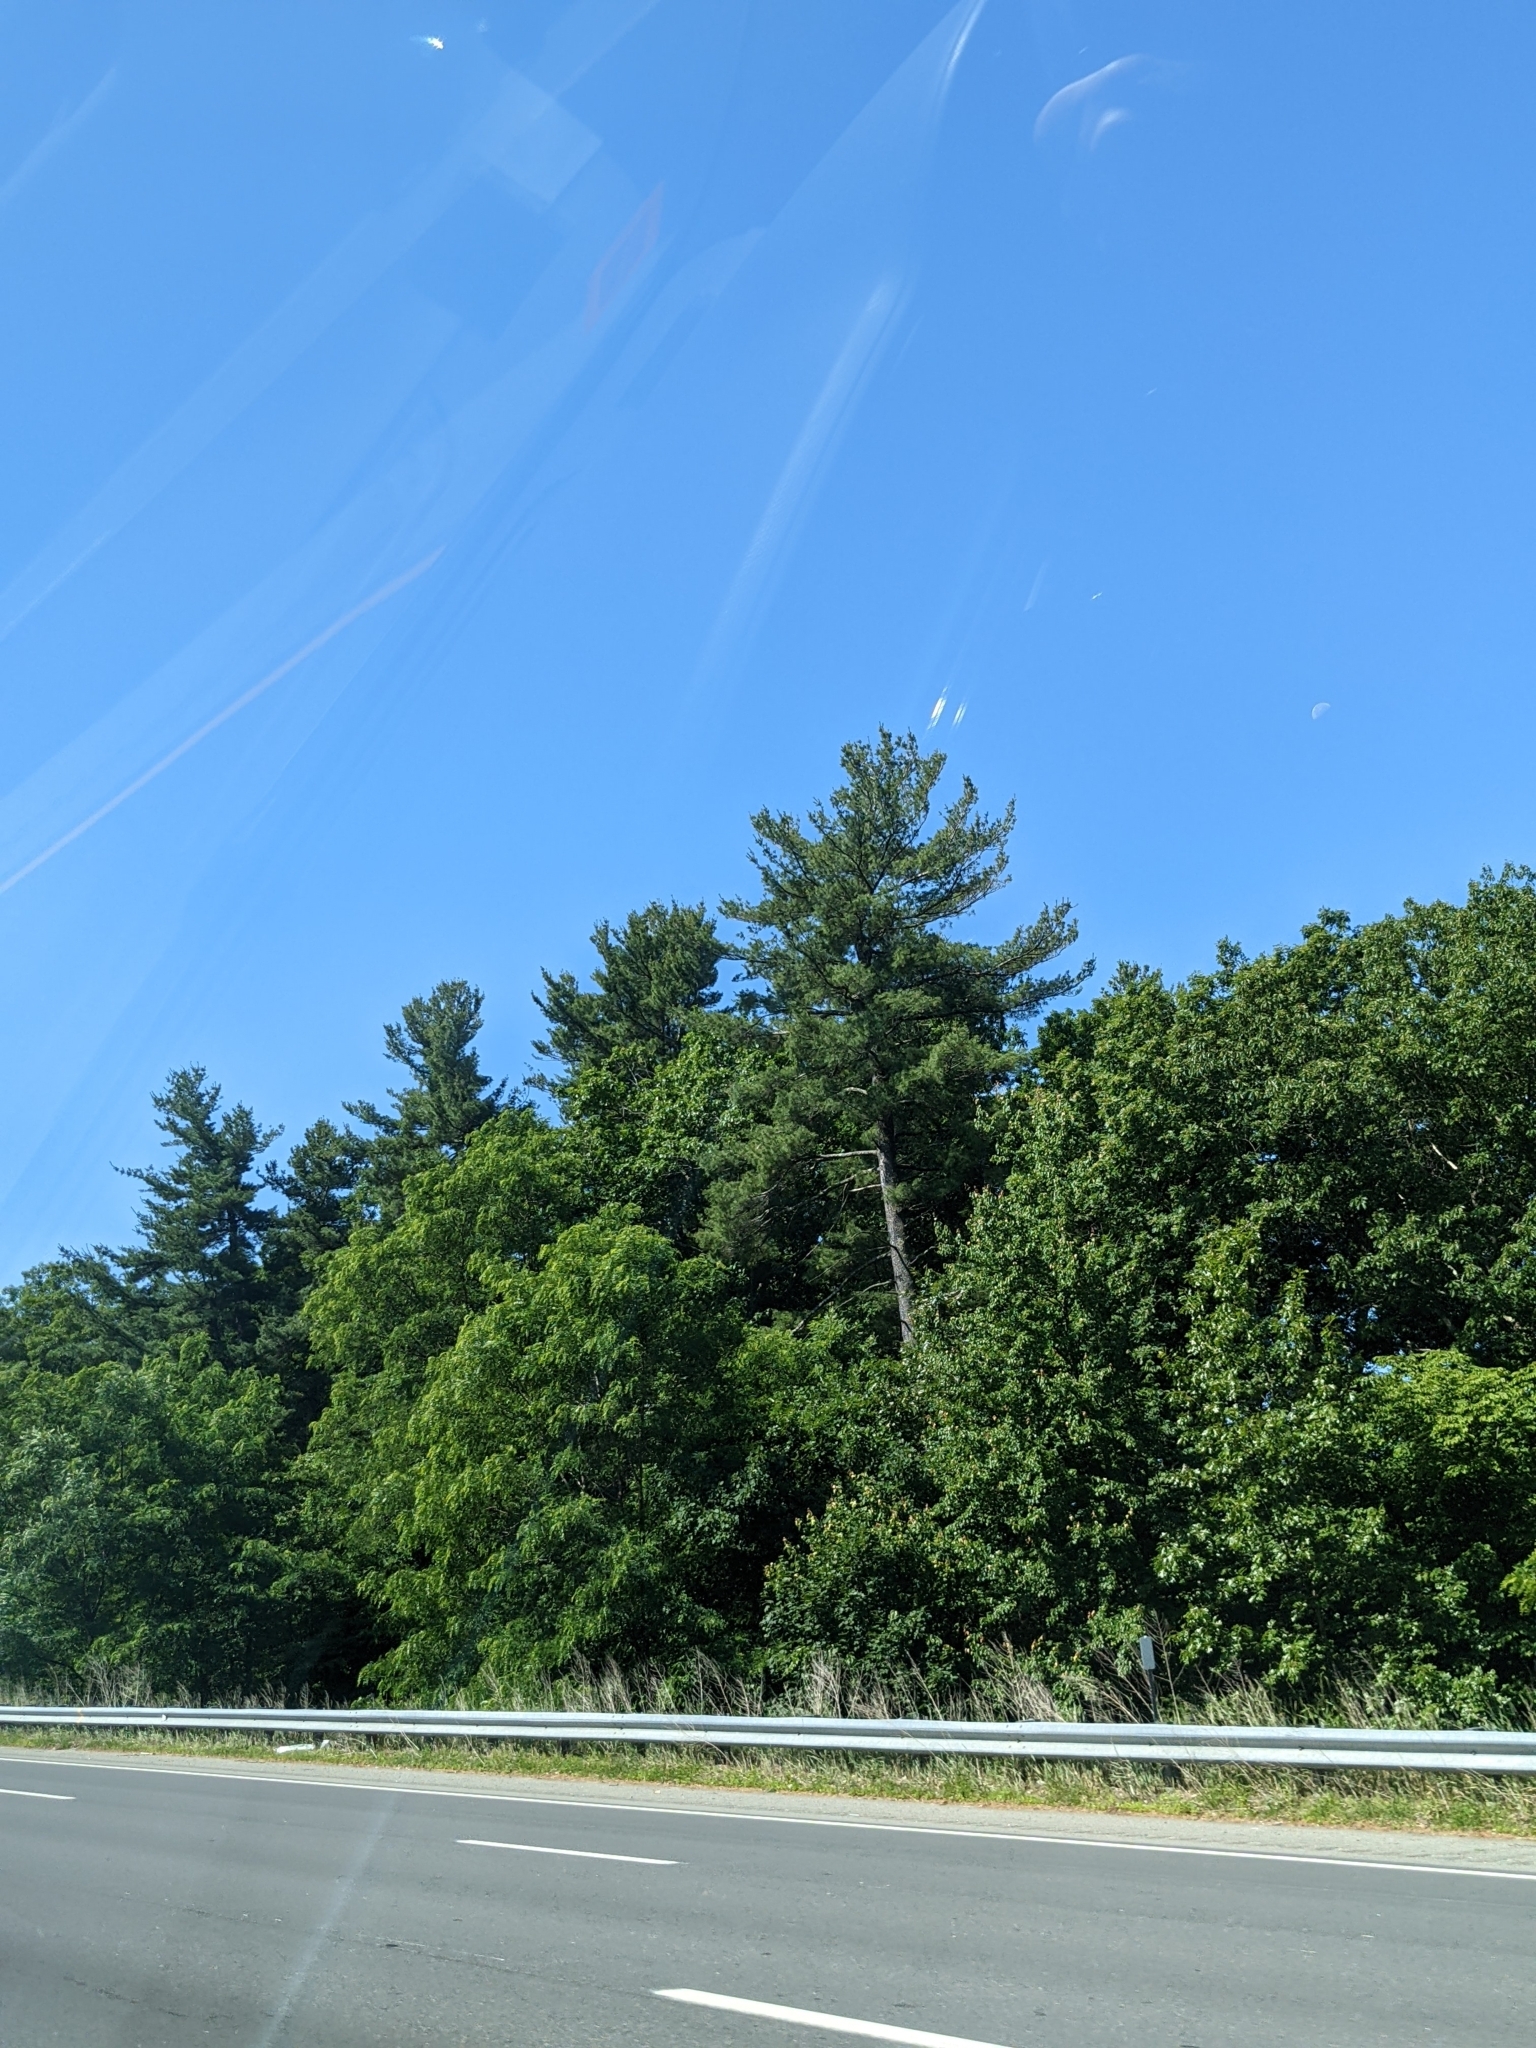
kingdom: Plantae
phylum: Tracheophyta
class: Pinopsida
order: Pinales
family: Pinaceae
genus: Pinus
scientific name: Pinus strobus
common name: Weymouth pine
